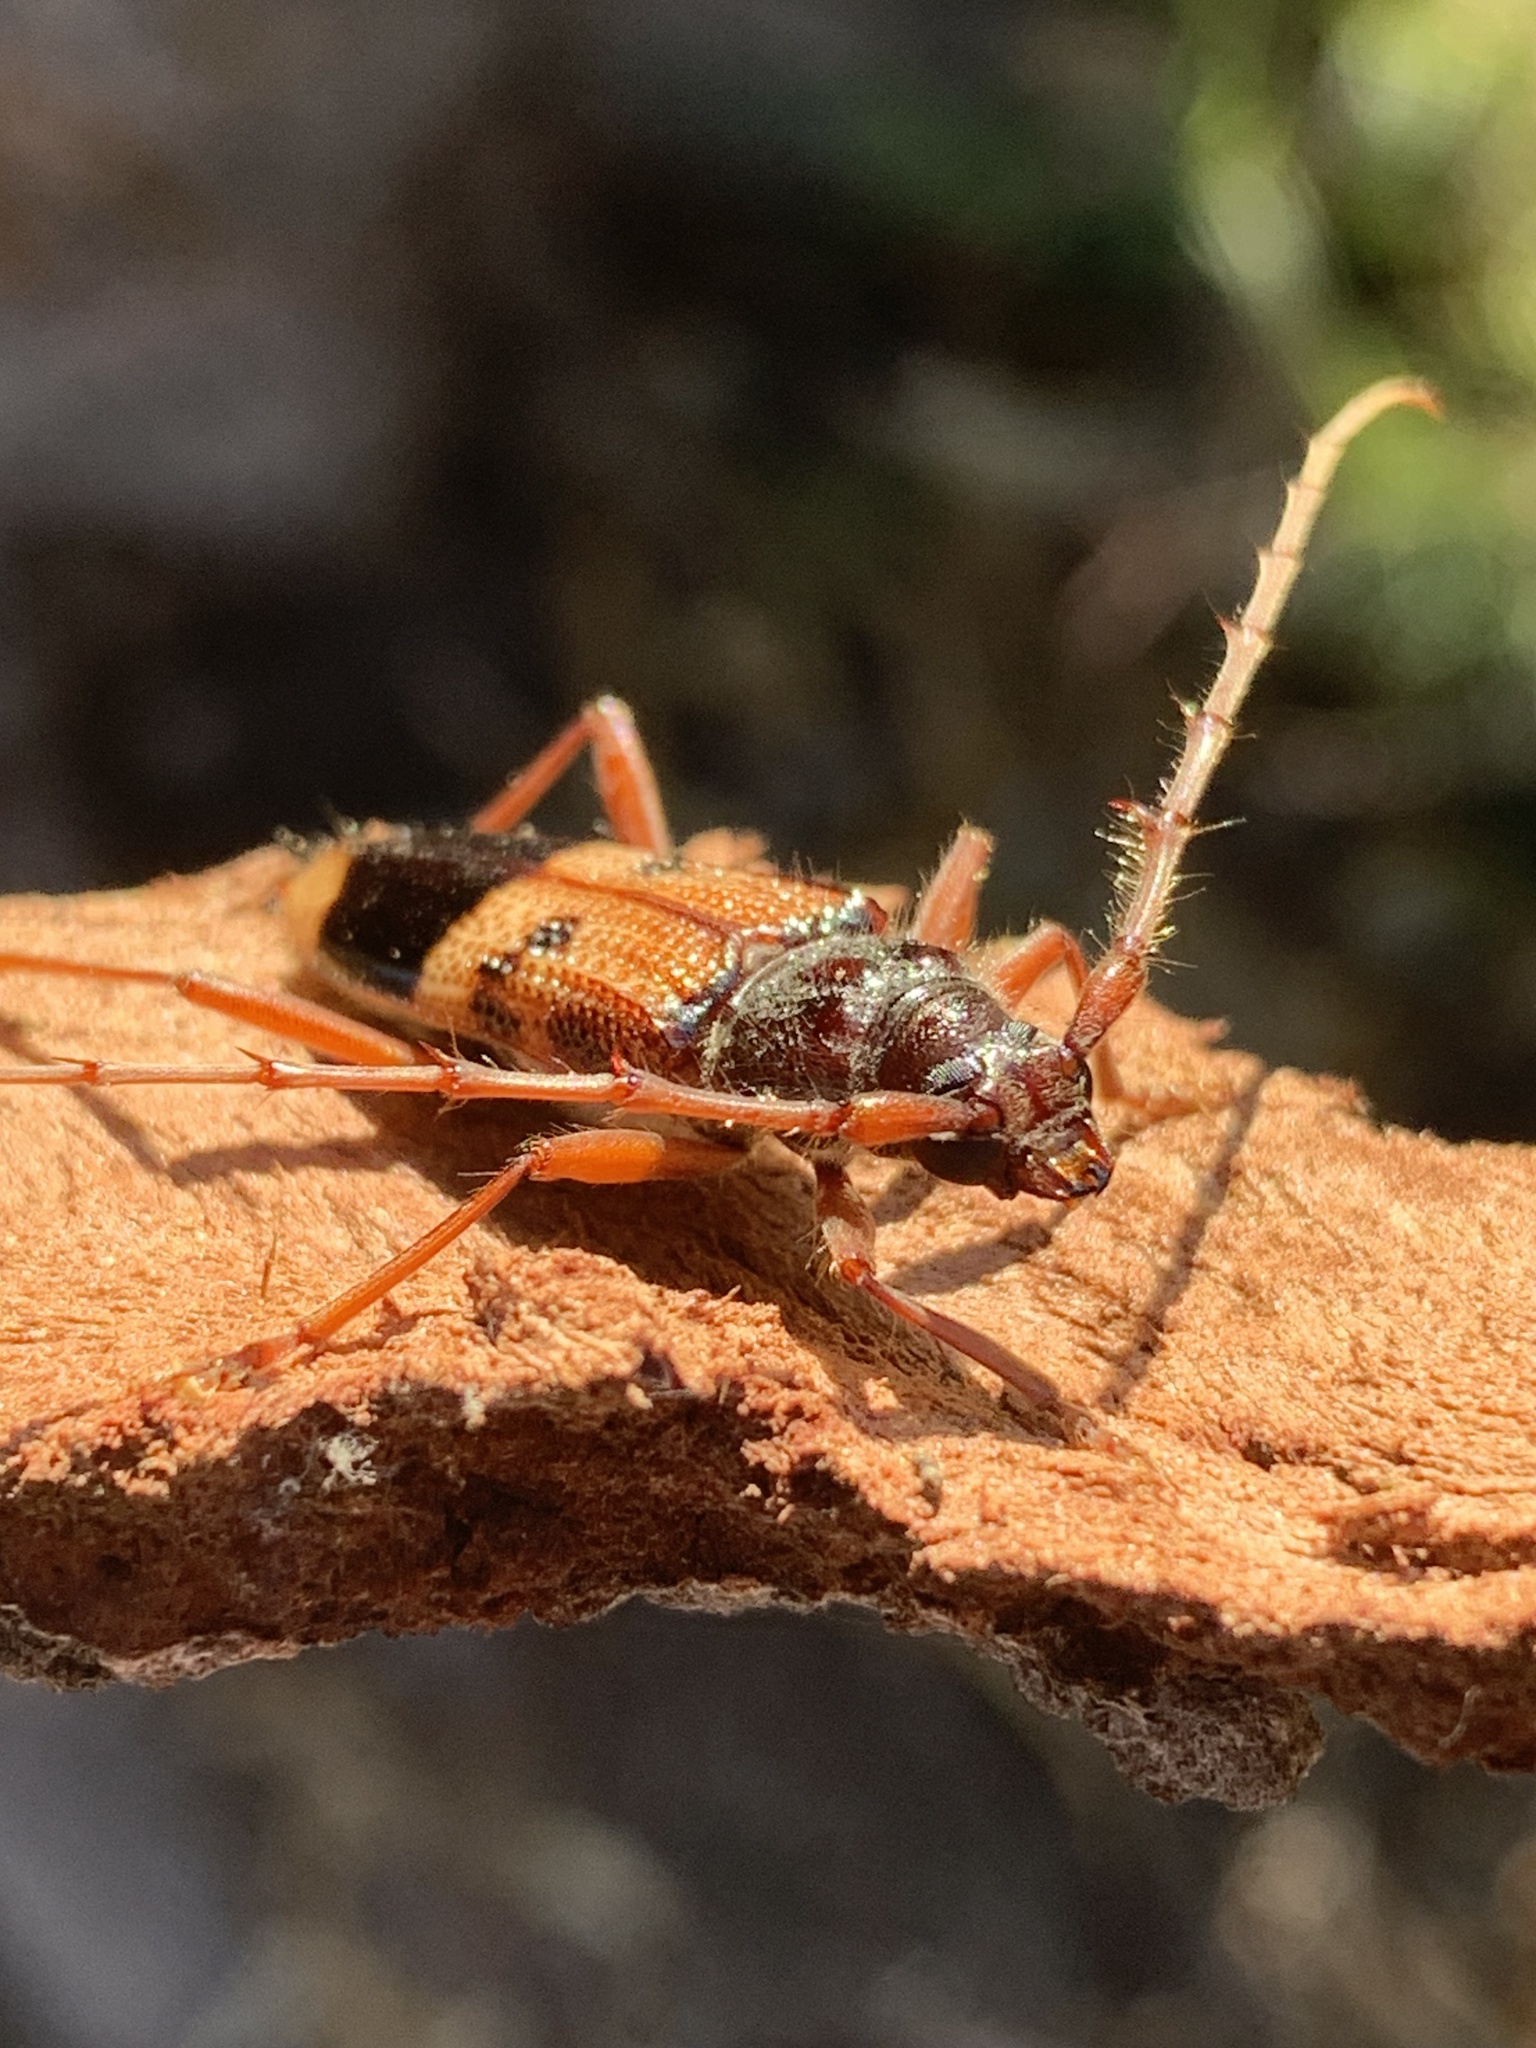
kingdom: Animalia
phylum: Arthropoda
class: Insecta
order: Coleoptera
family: Cerambycidae
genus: Phoracantha
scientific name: Phoracantha recurva
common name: Eucalyptus longhorned borer
